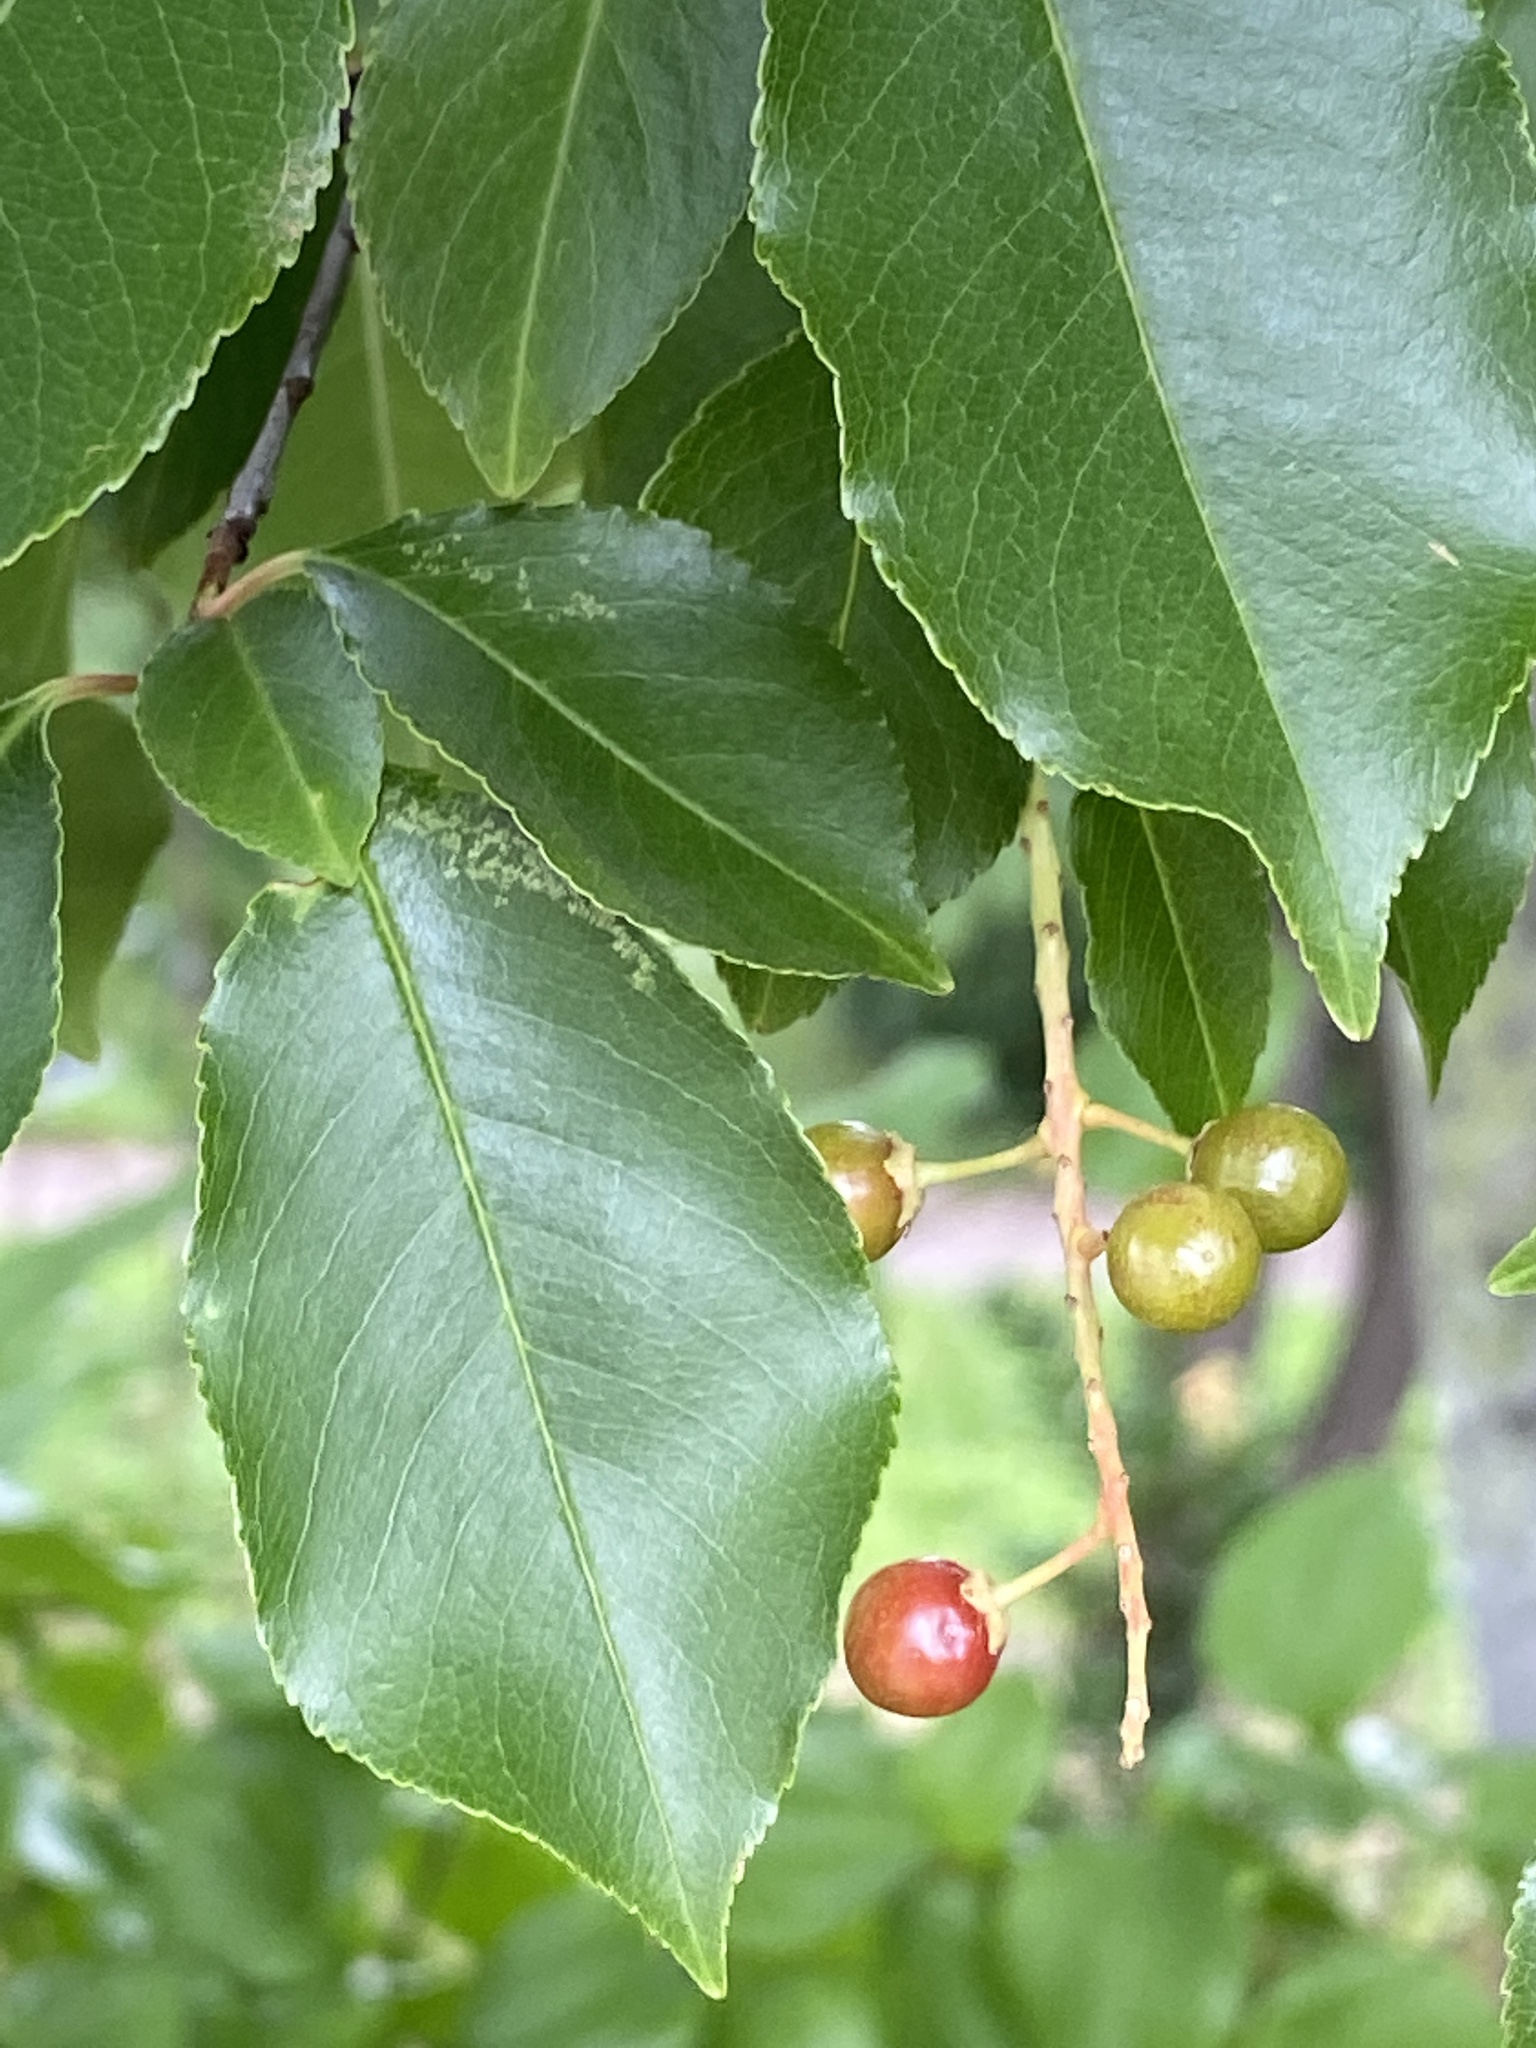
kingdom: Plantae
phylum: Tracheophyta
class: Magnoliopsida
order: Rosales
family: Rosaceae
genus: Prunus
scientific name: Prunus serotina
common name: Black cherry
